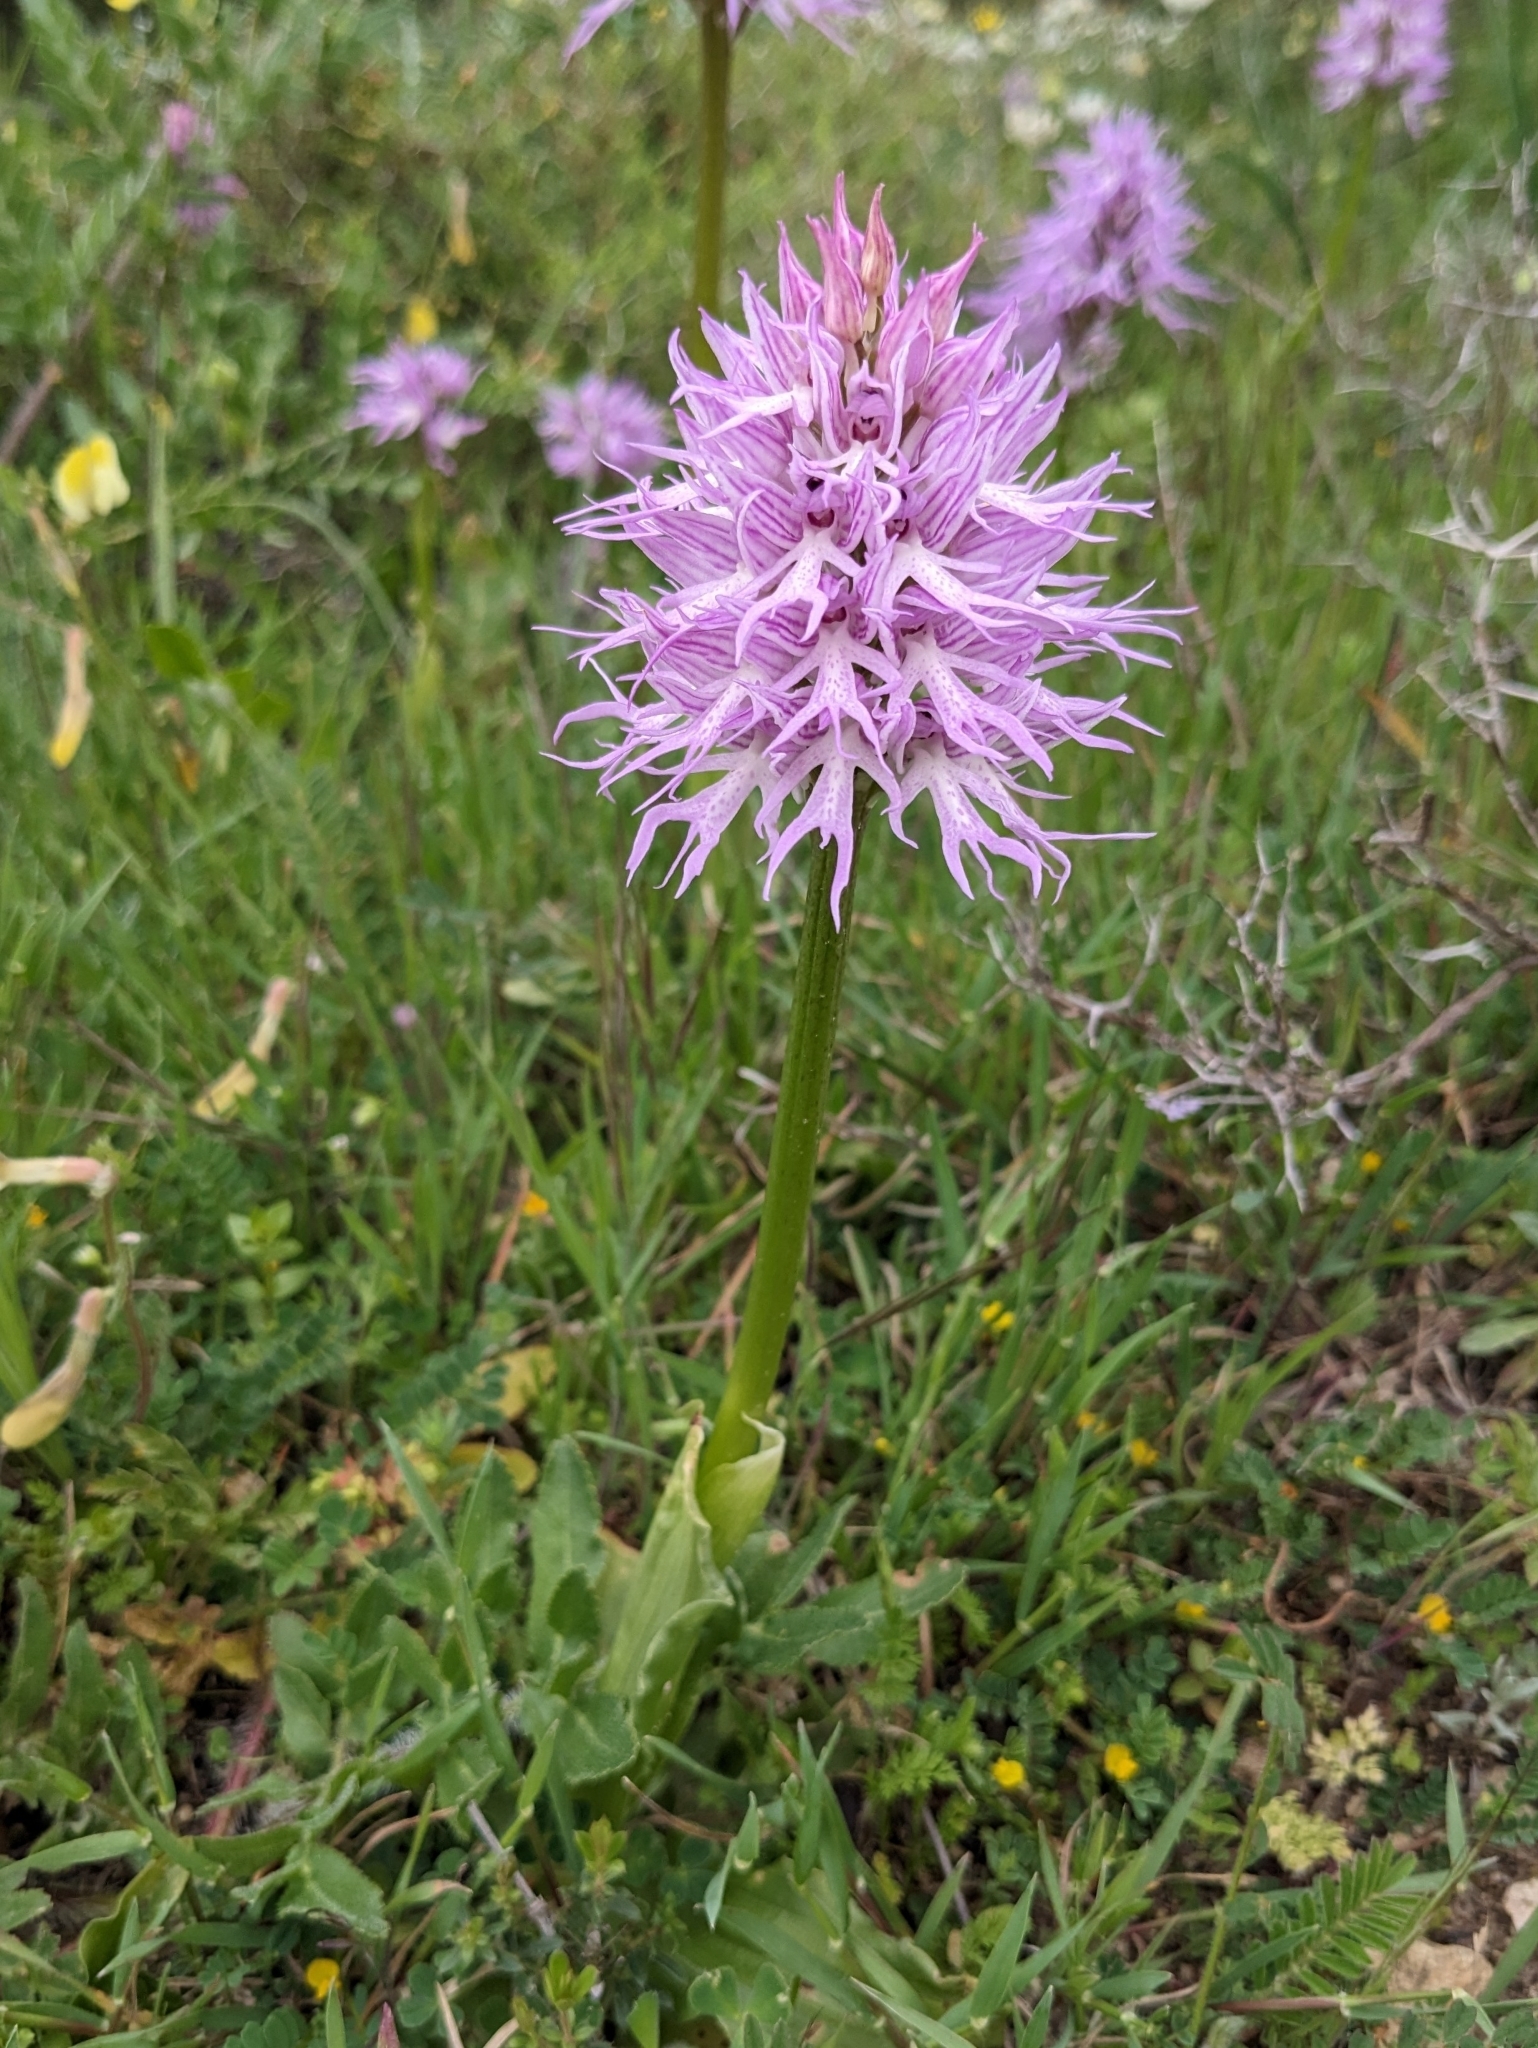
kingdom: Plantae
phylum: Tracheophyta
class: Liliopsida
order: Asparagales
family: Orchidaceae
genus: Orchis
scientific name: Orchis italica
